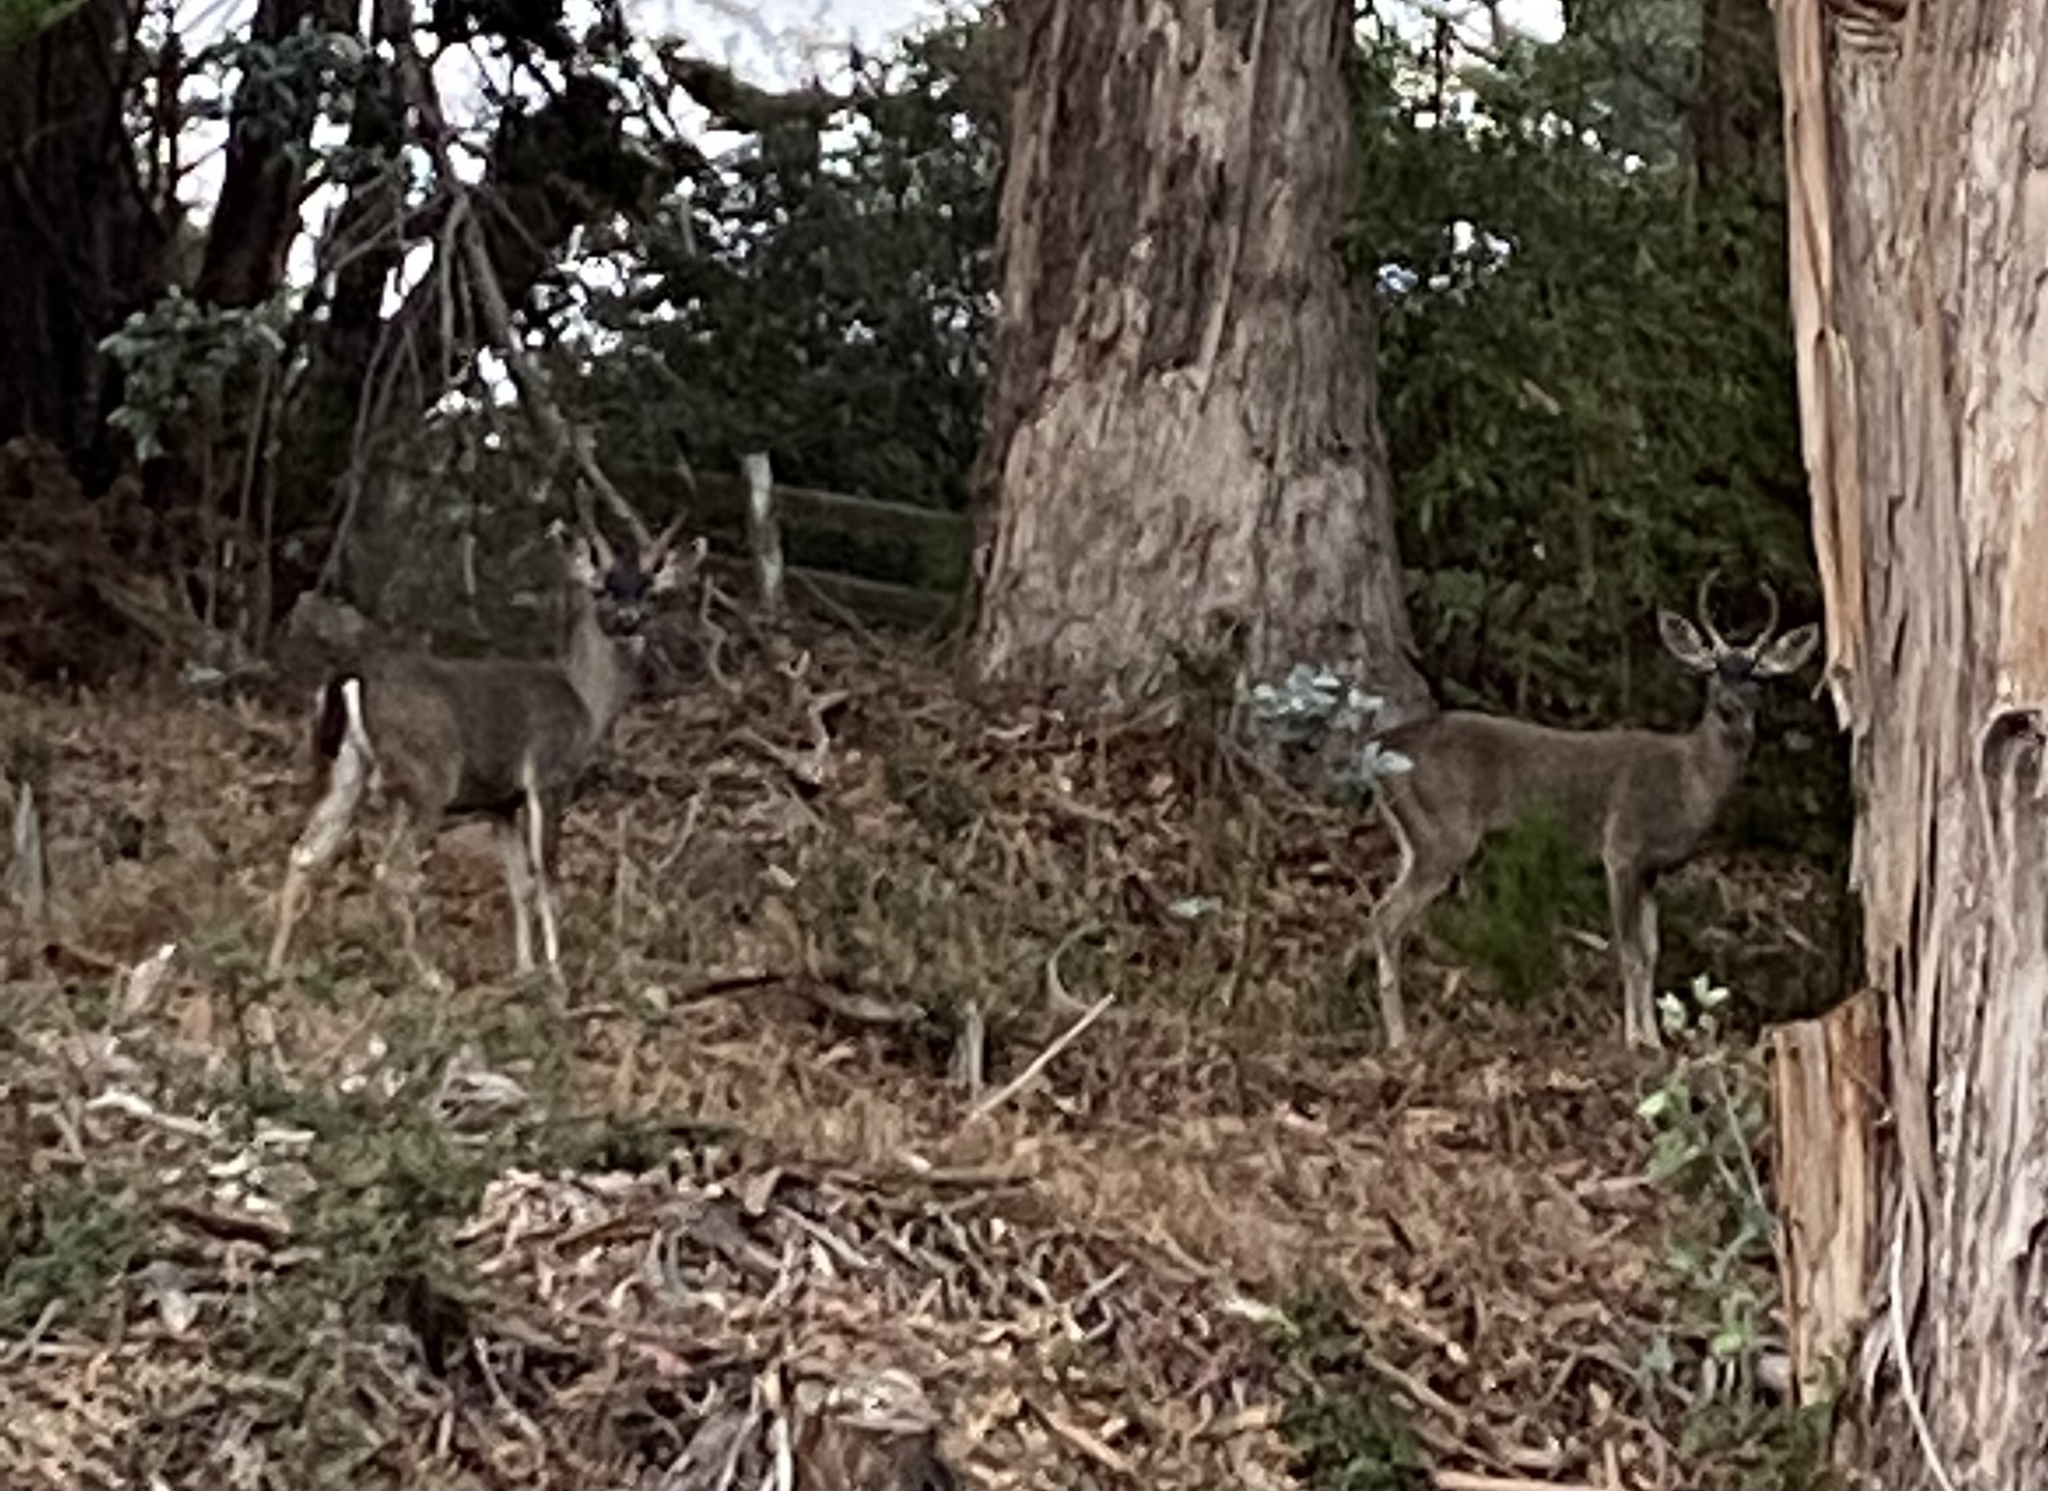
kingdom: Animalia
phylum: Chordata
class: Mammalia
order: Artiodactyla
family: Cervidae
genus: Odocoileus
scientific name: Odocoileus hemionus
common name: Mule deer
